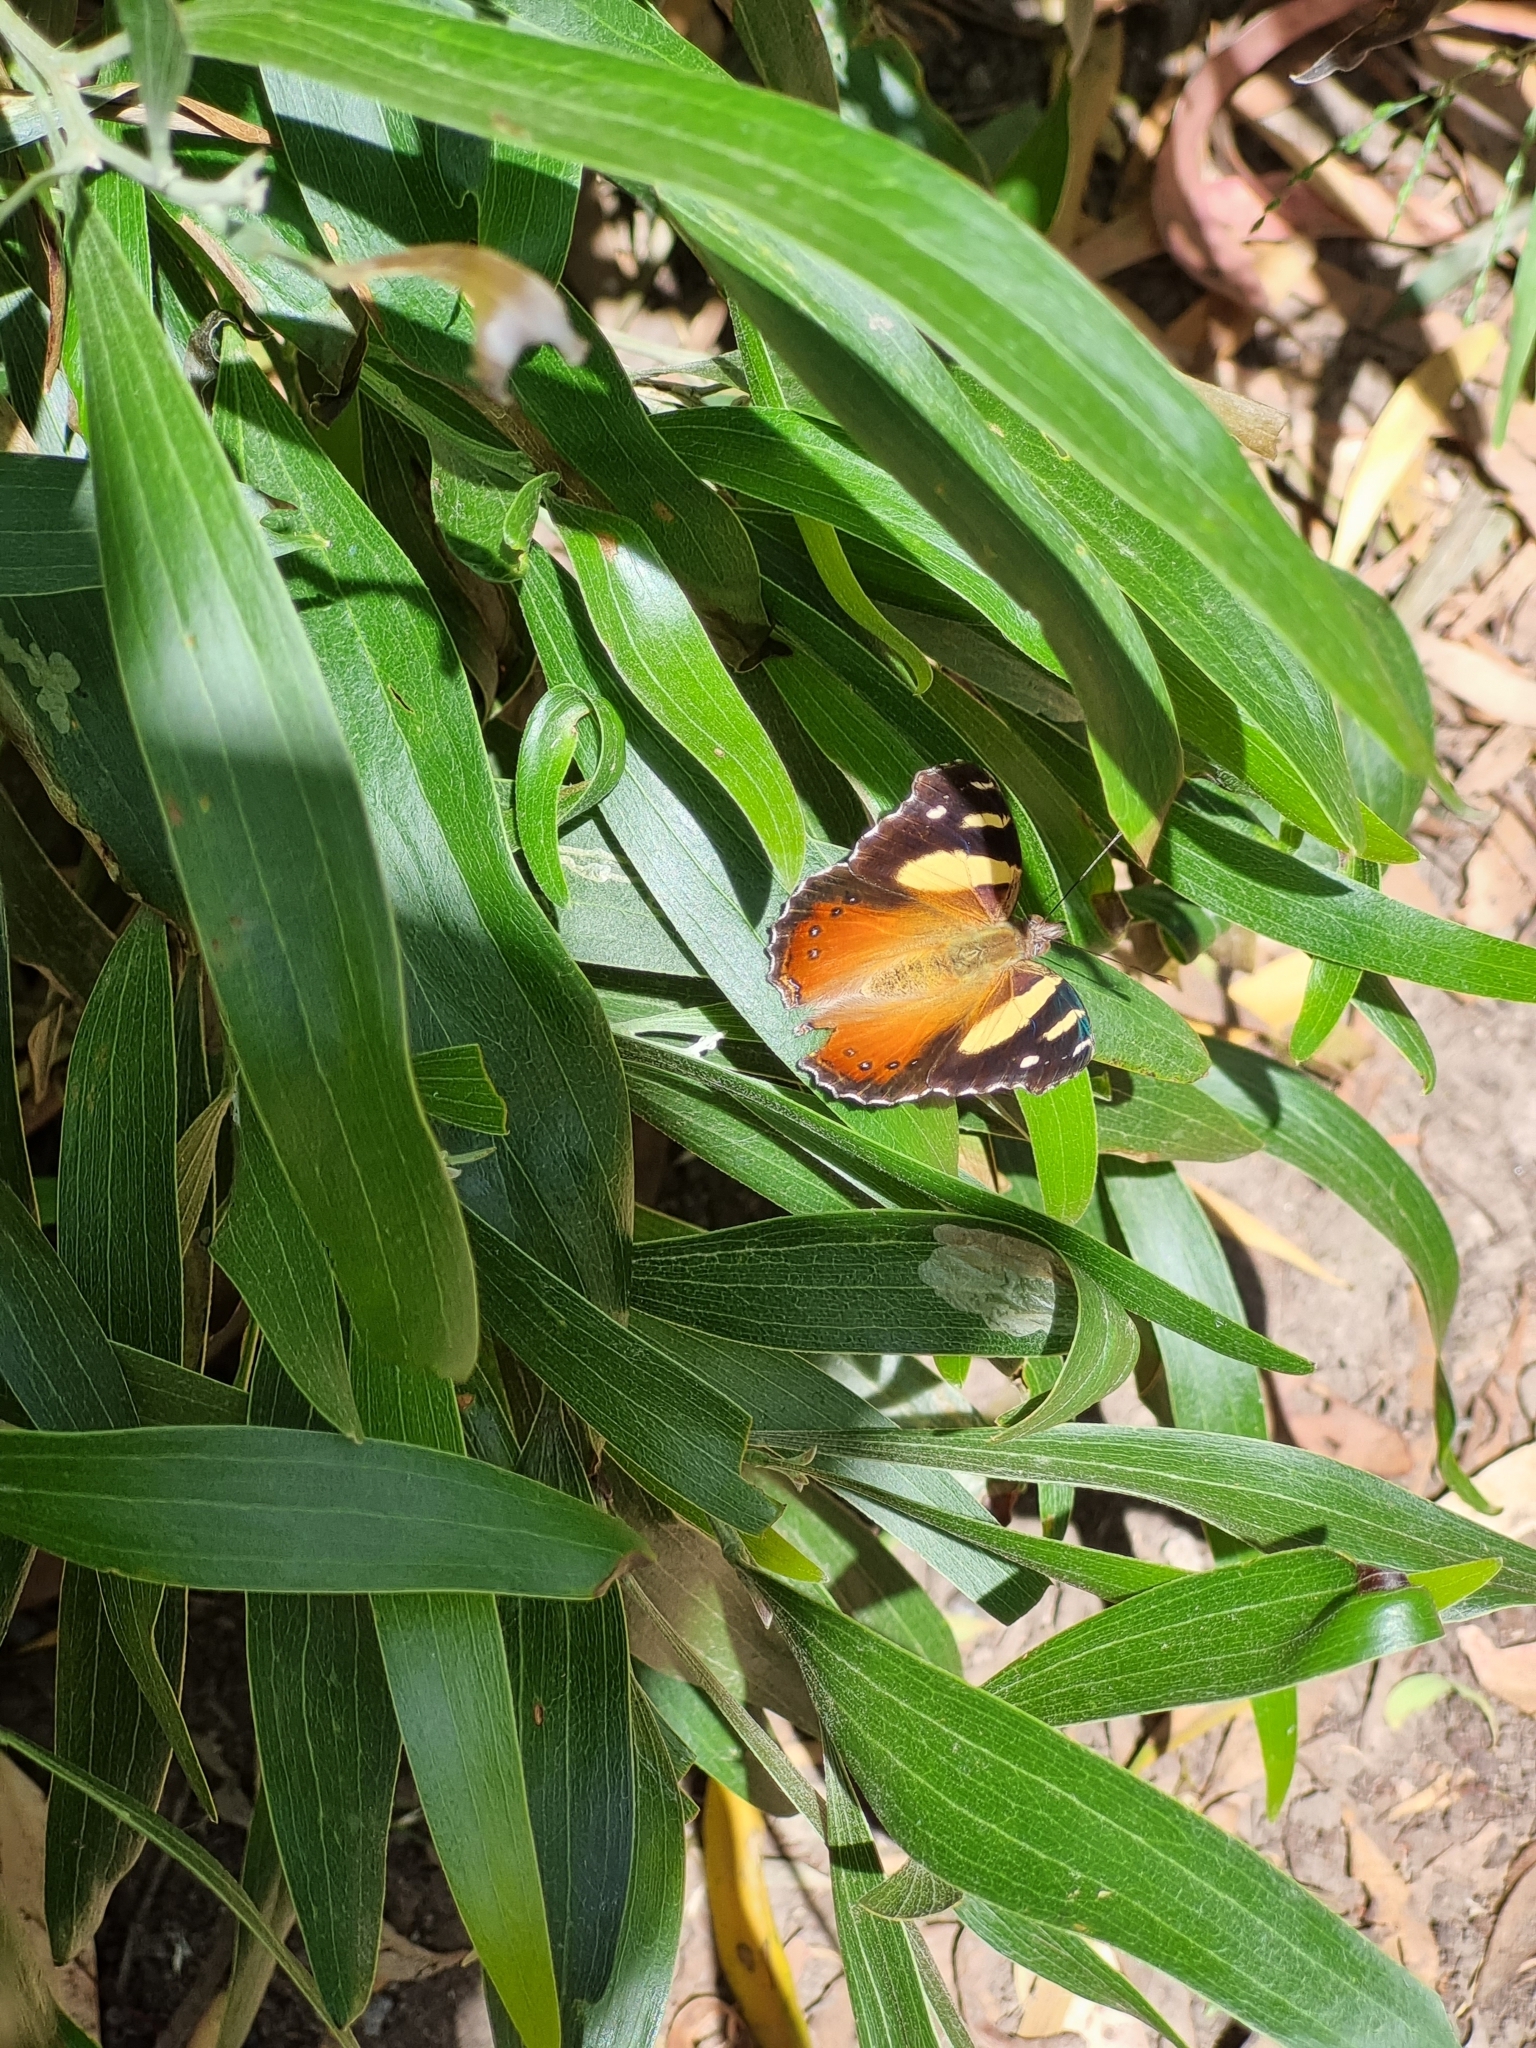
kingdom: Animalia
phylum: Arthropoda
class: Insecta
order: Lepidoptera
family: Nymphalidae
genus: Vanessa
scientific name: Vanessa itea
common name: Yellow admiral
